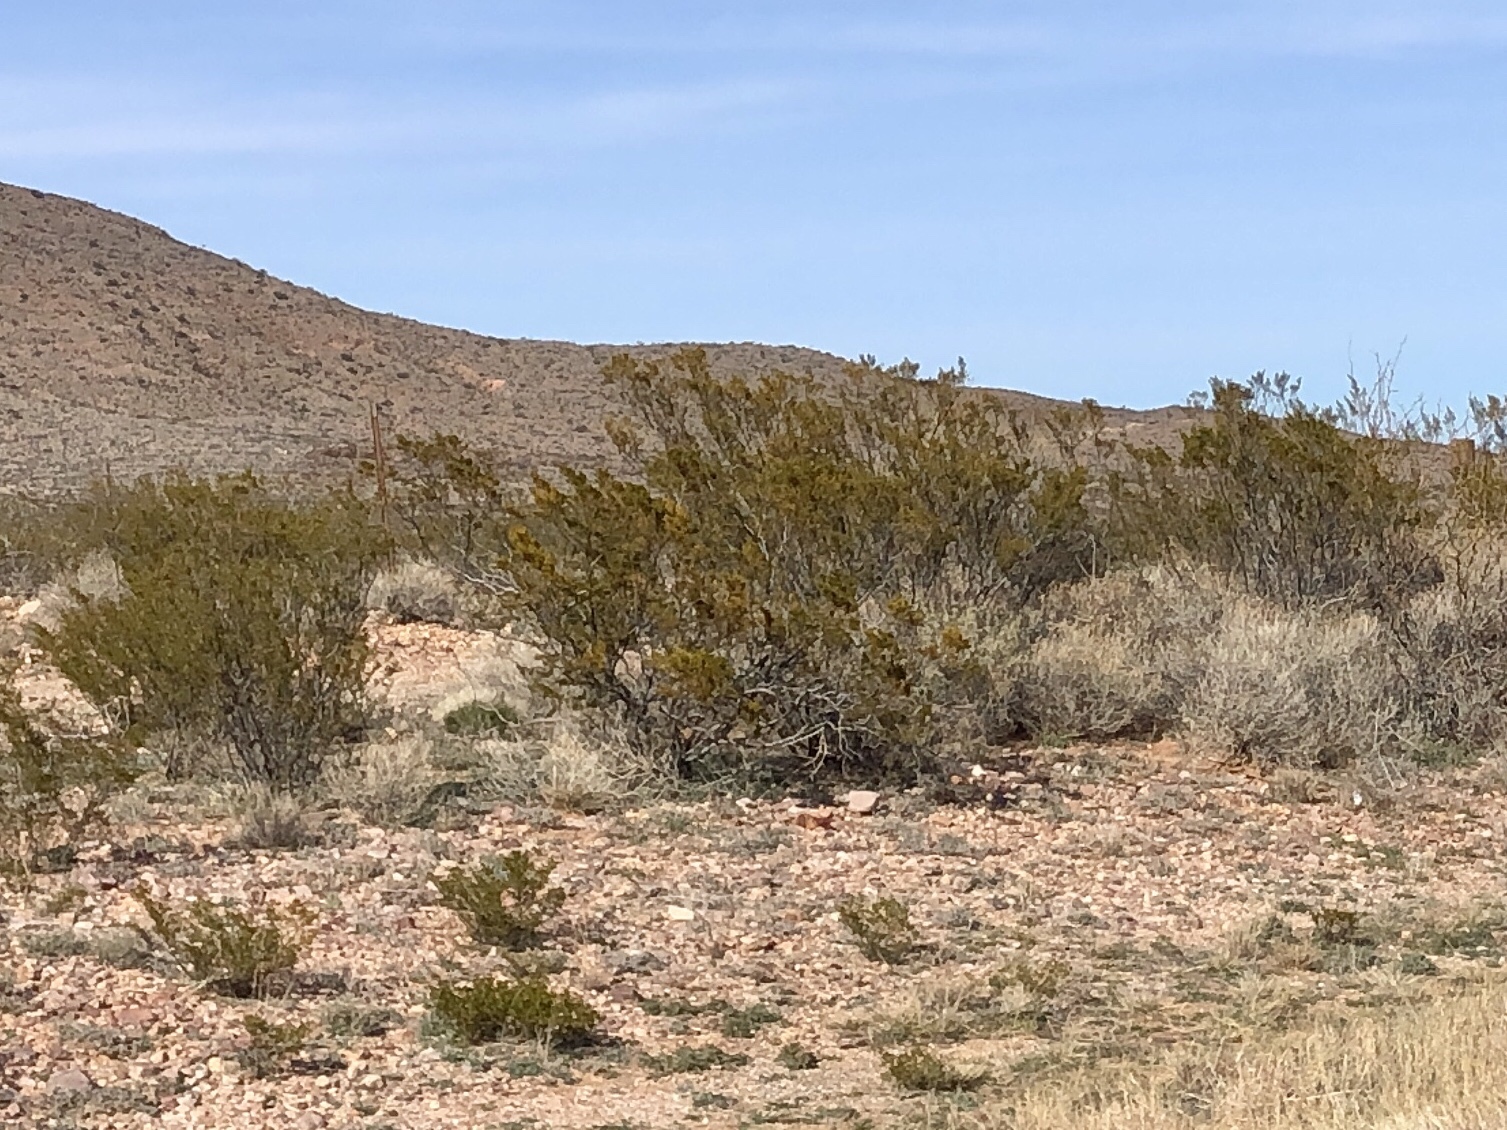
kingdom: Plantae
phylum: Tracheophyta
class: Magnoliopsida
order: Zygophyllales
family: Zygophyllaceae
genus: Larrea
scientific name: Larrea tridentata
